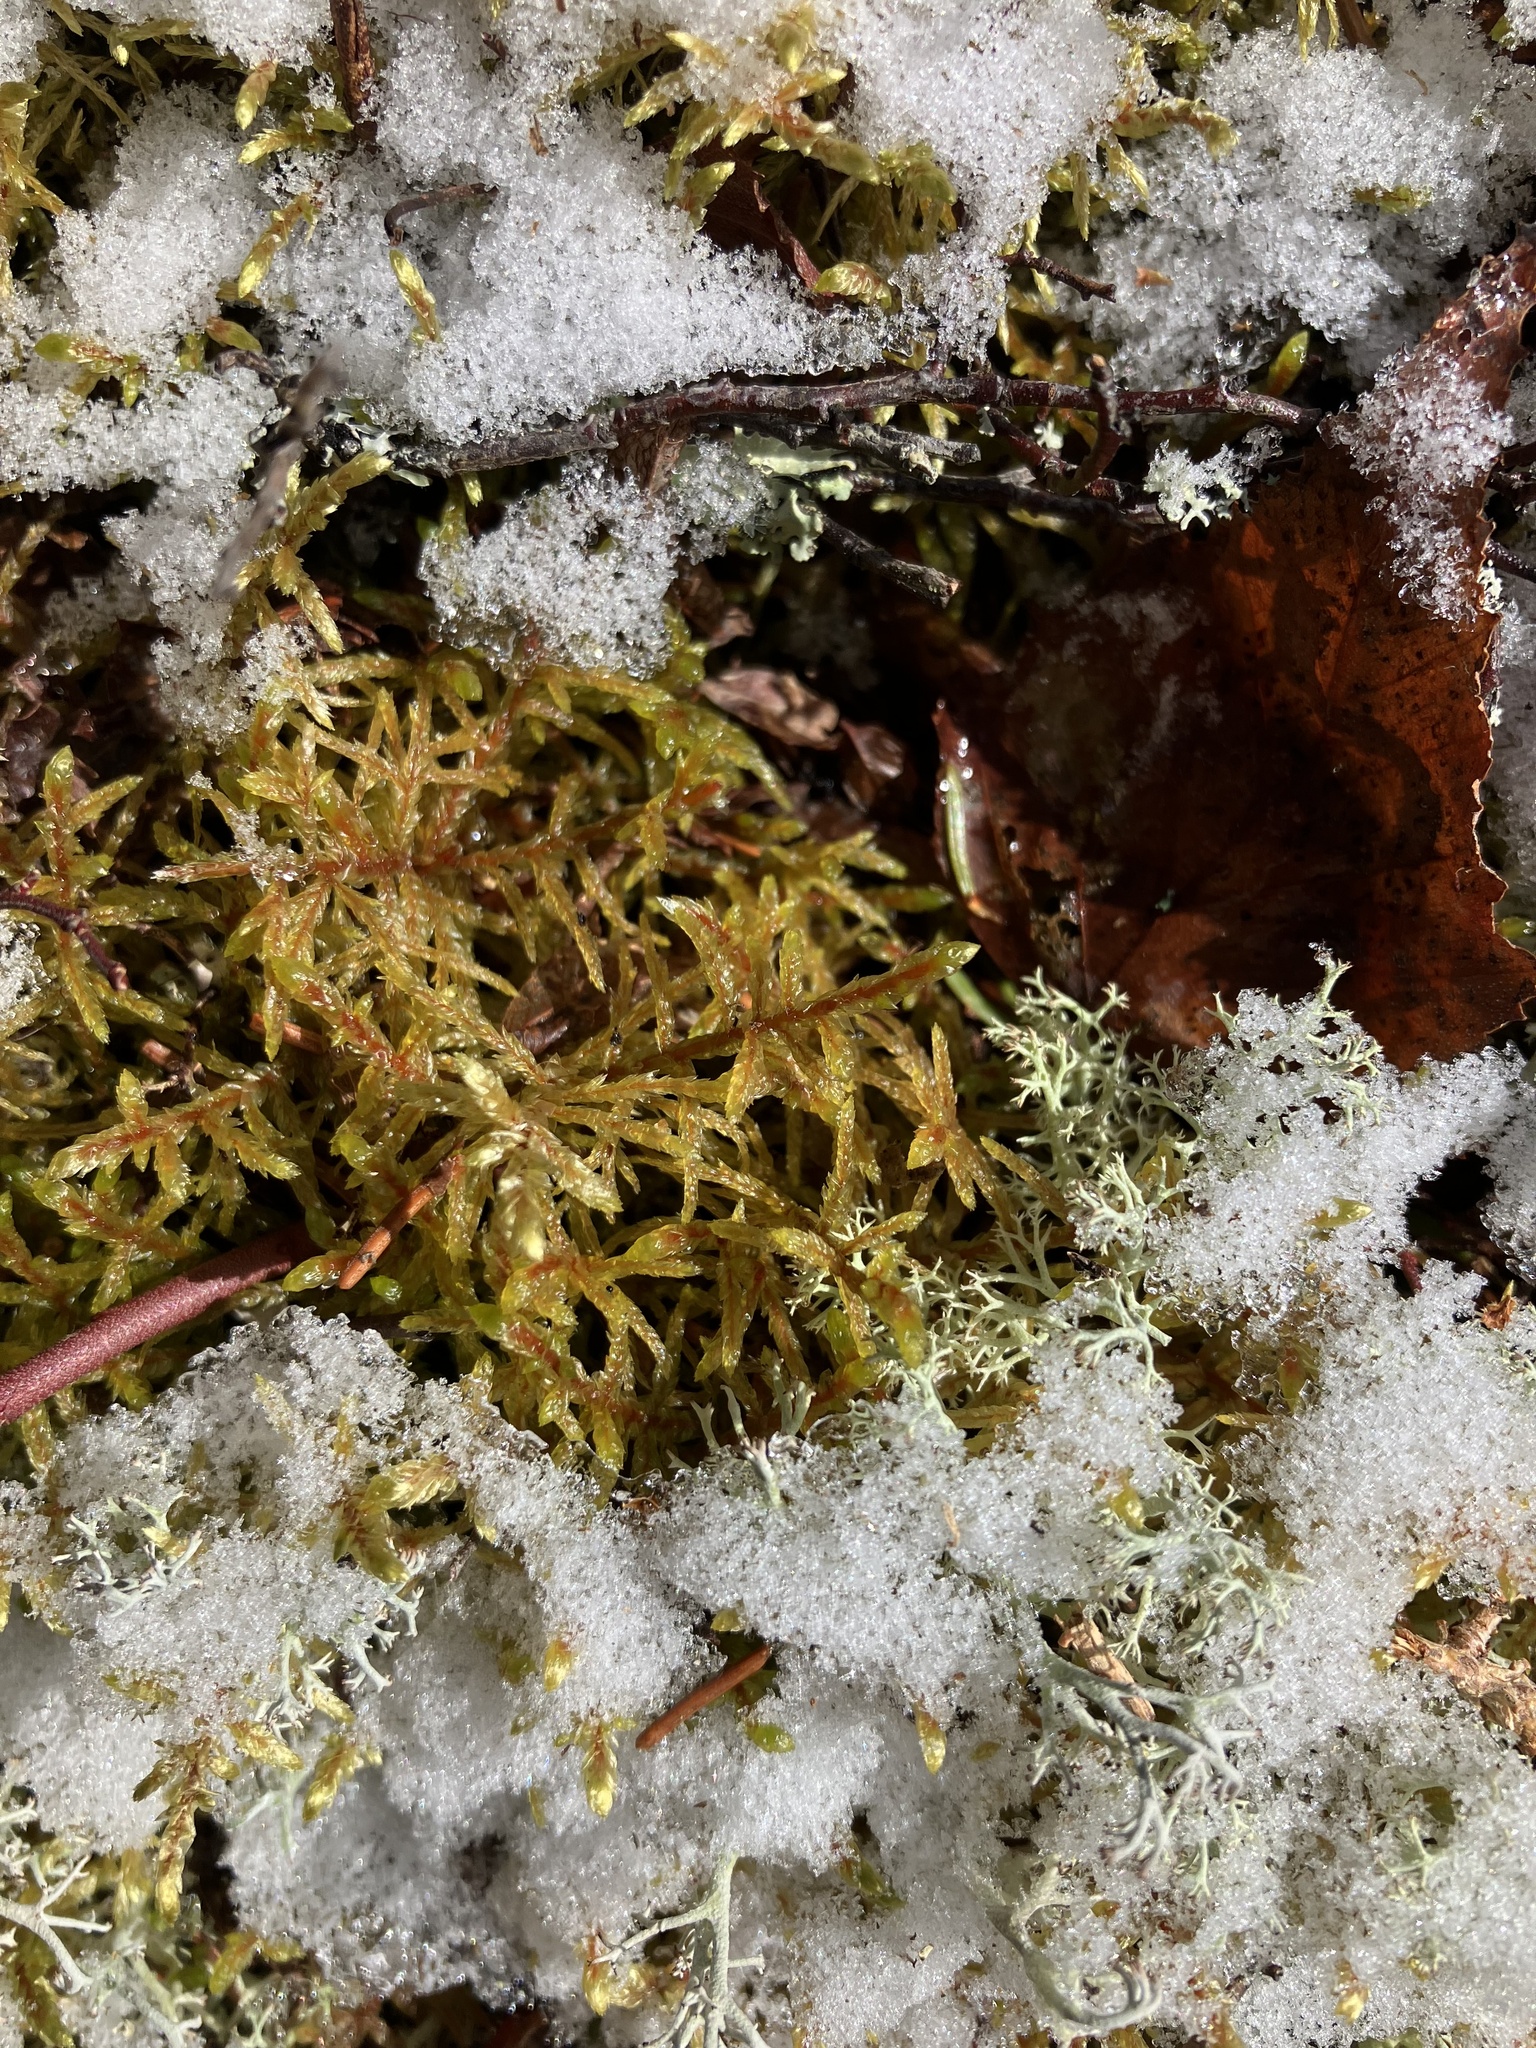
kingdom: Plantae
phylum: Bryophyta
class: Bryopsida
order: Hypnales
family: Hylocomiaceae
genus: Pleurozium
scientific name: Pleurozium schreberi
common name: Red-stemmed feather moss
